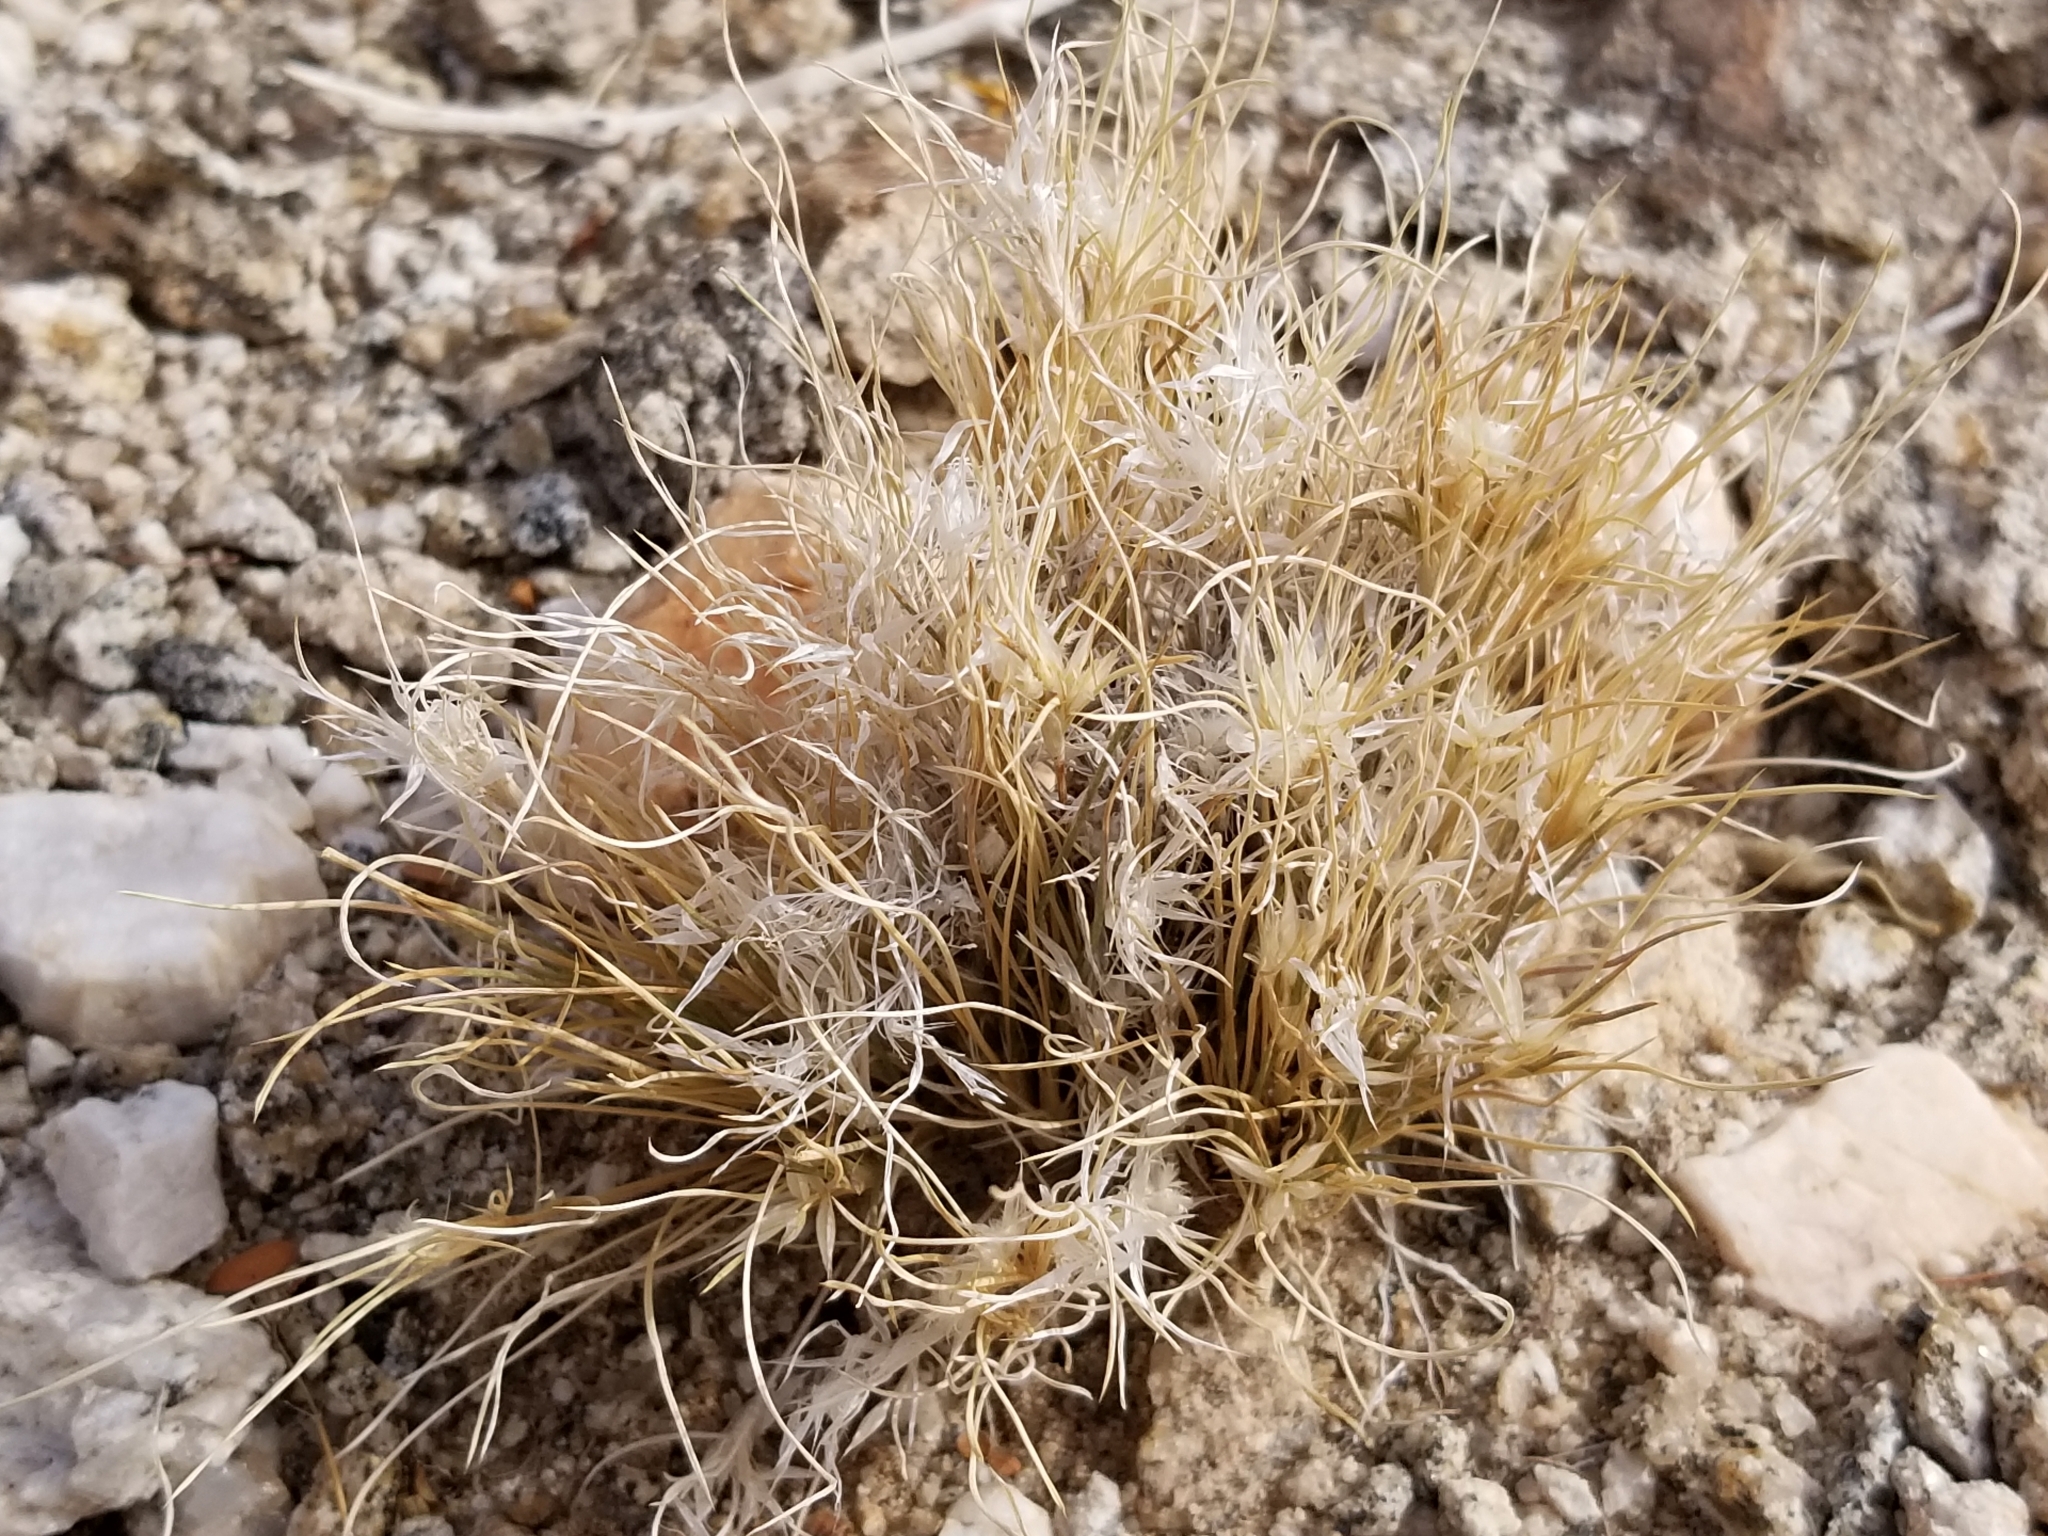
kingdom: Plantae
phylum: Tracheophyta
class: Liliopsida
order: Poales
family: Poaceae
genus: Dasyochloa
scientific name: Dasyochloa pulchella
